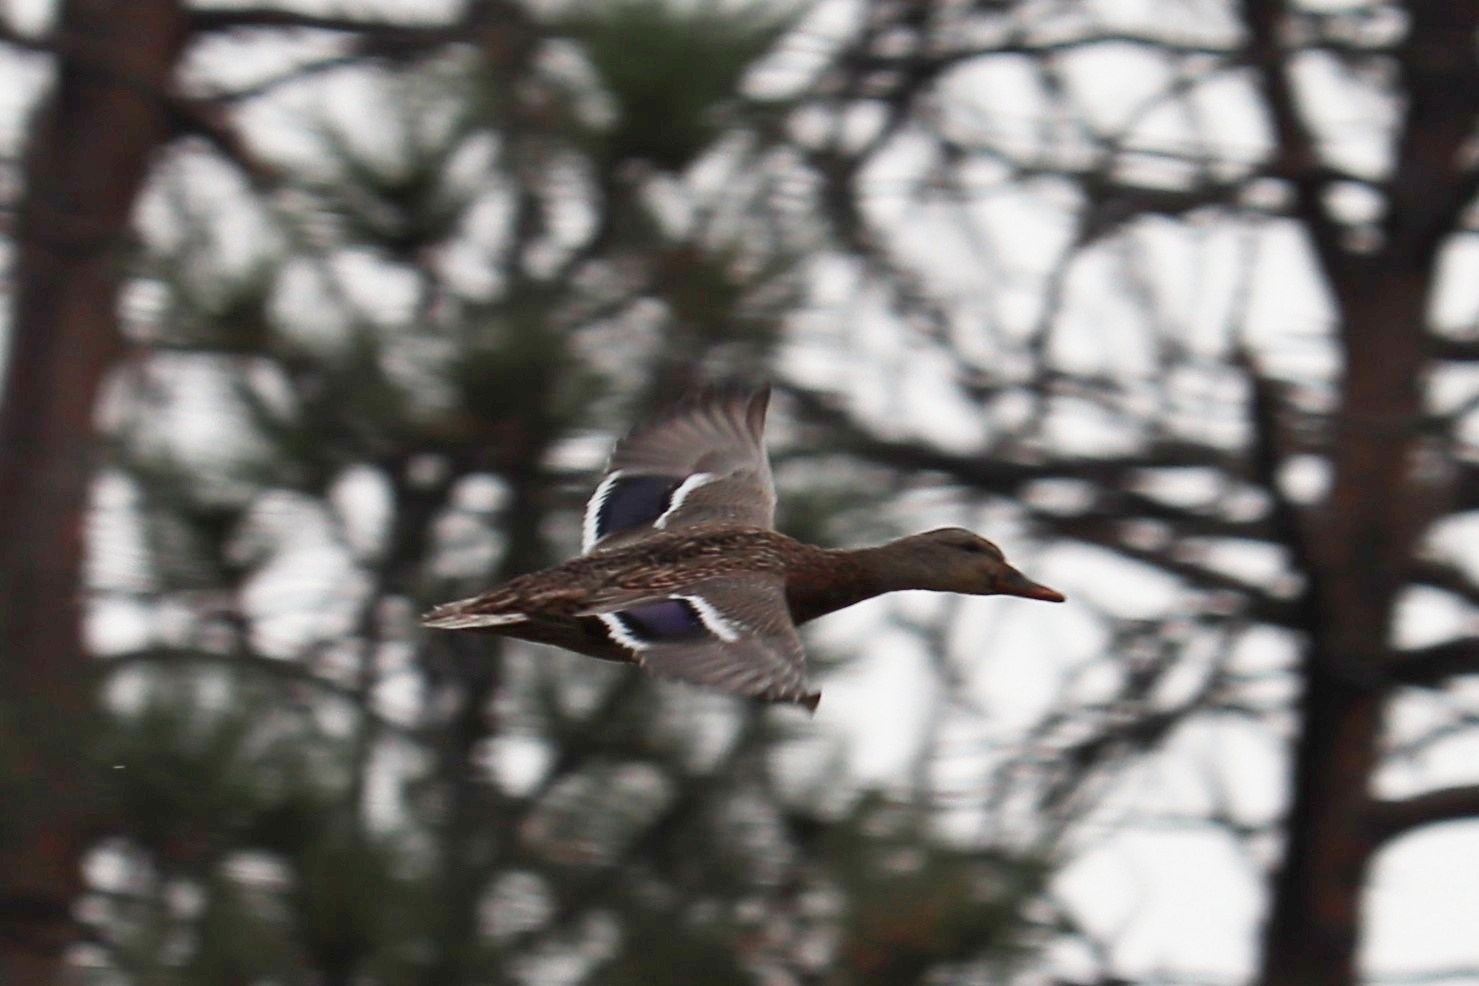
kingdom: Animalia
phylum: Chordata
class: Aves
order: Anseriformes
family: Anatidae
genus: Anas
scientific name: Anas platyrhynchos
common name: Mallard
